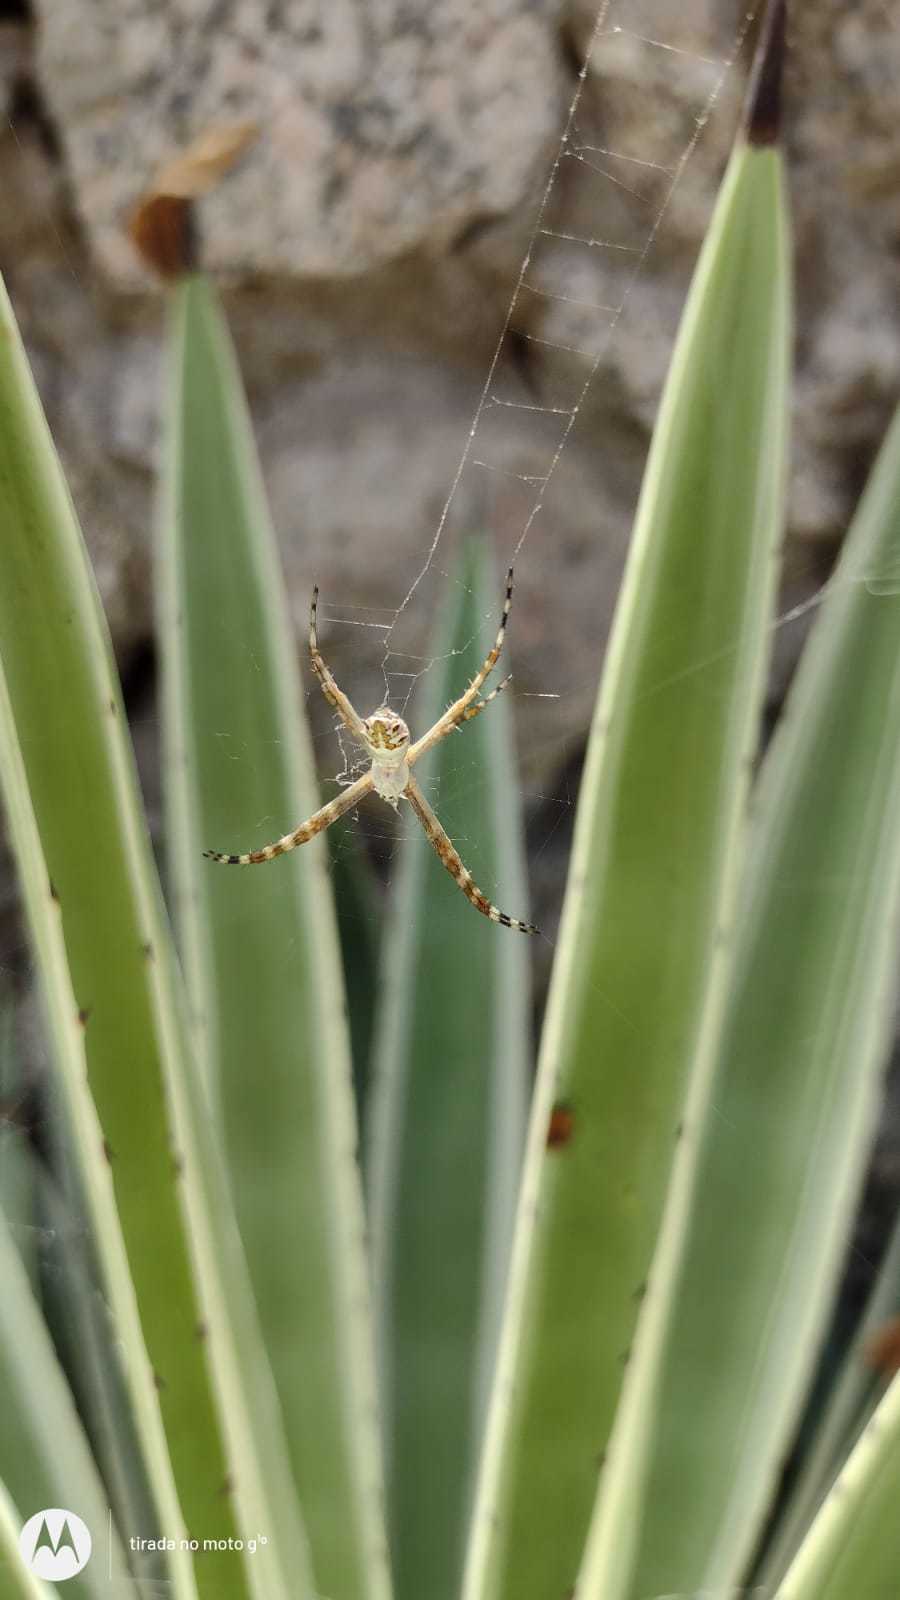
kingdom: Animalia
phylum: Arthropoda
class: Arachnida
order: Araneae
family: Araneidae
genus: Argiope
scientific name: Argiope argentata
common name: Orb weavers
